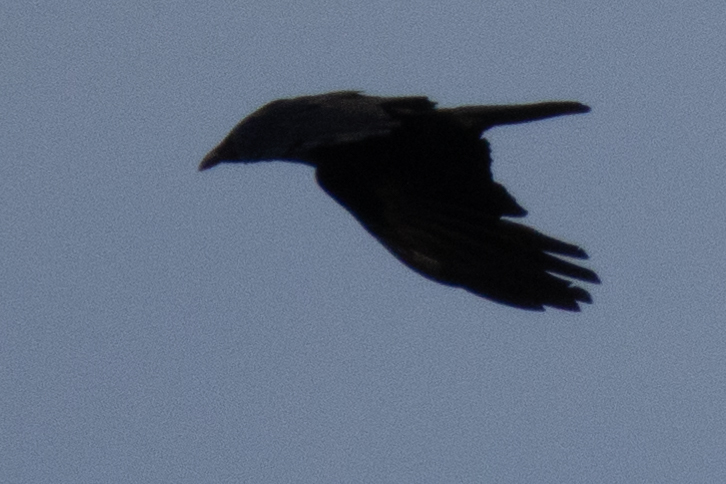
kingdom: Animalia
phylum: Chordata
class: Aves
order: Passeriformes
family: Corvidae
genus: Corvus
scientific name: Corvus corone
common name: Carrion crow
